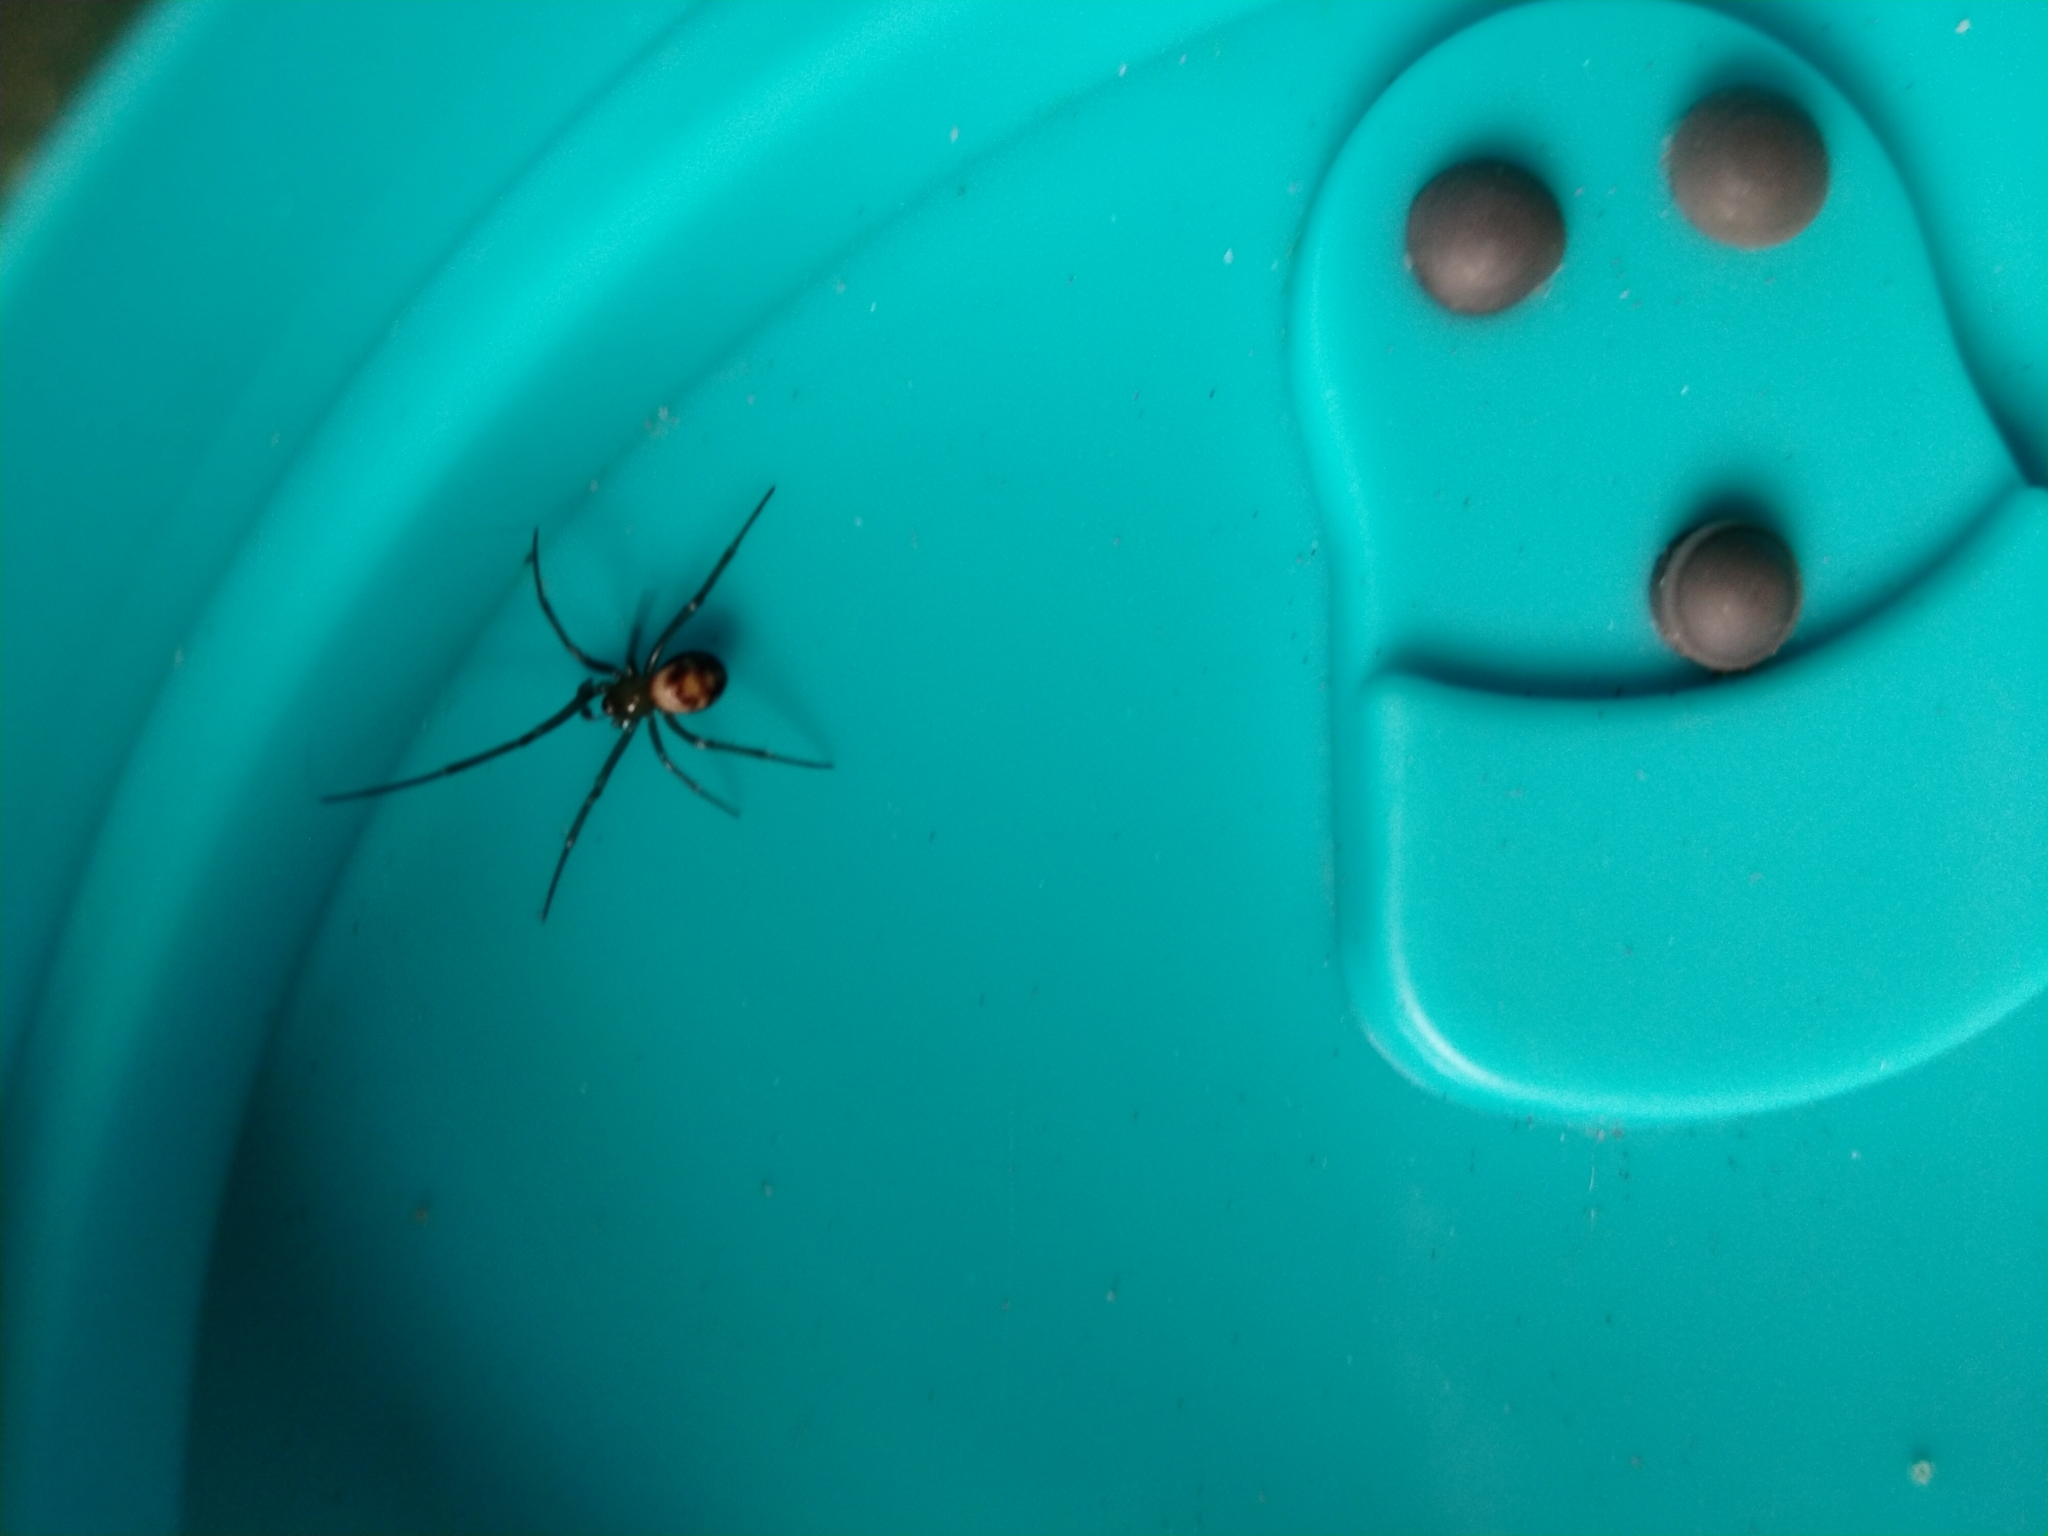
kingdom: Animalia
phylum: Arthropoda
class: Arachnida
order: Araneae
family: Theridiidae
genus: Steatoda
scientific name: Steatoda grossa
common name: False black widow
